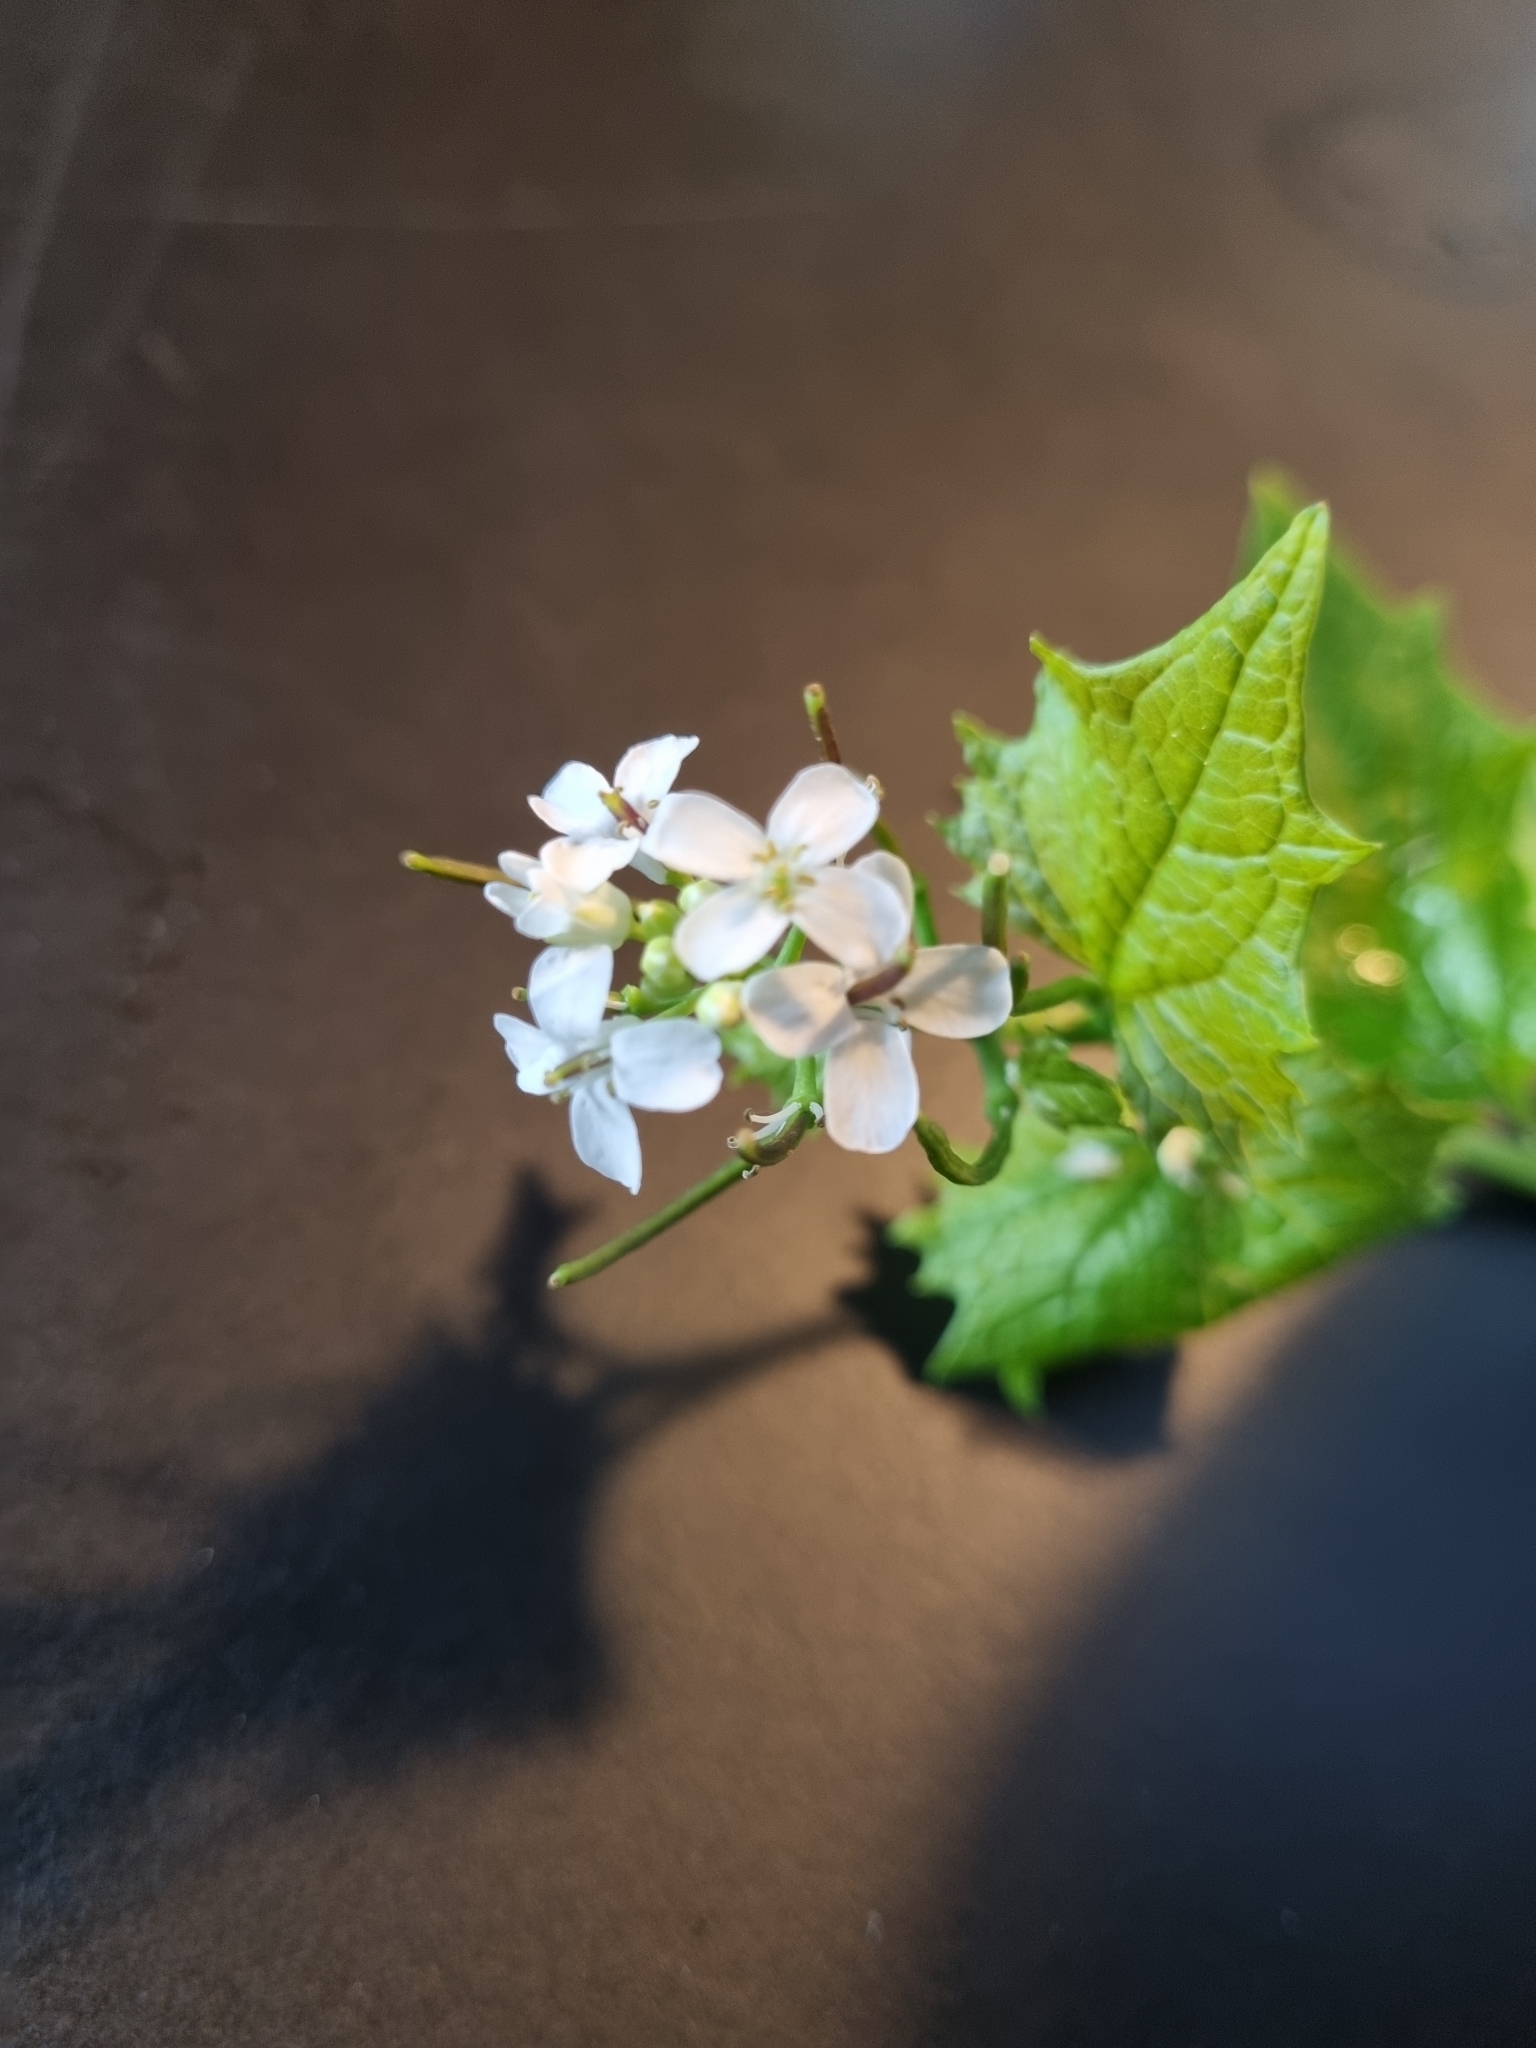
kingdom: Plantae
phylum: Tracheophyta
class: Magnoliopsida
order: Brassicales
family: Brassicaceae
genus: Alliaria
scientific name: Alliaria petiolata
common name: Garlic mustard
